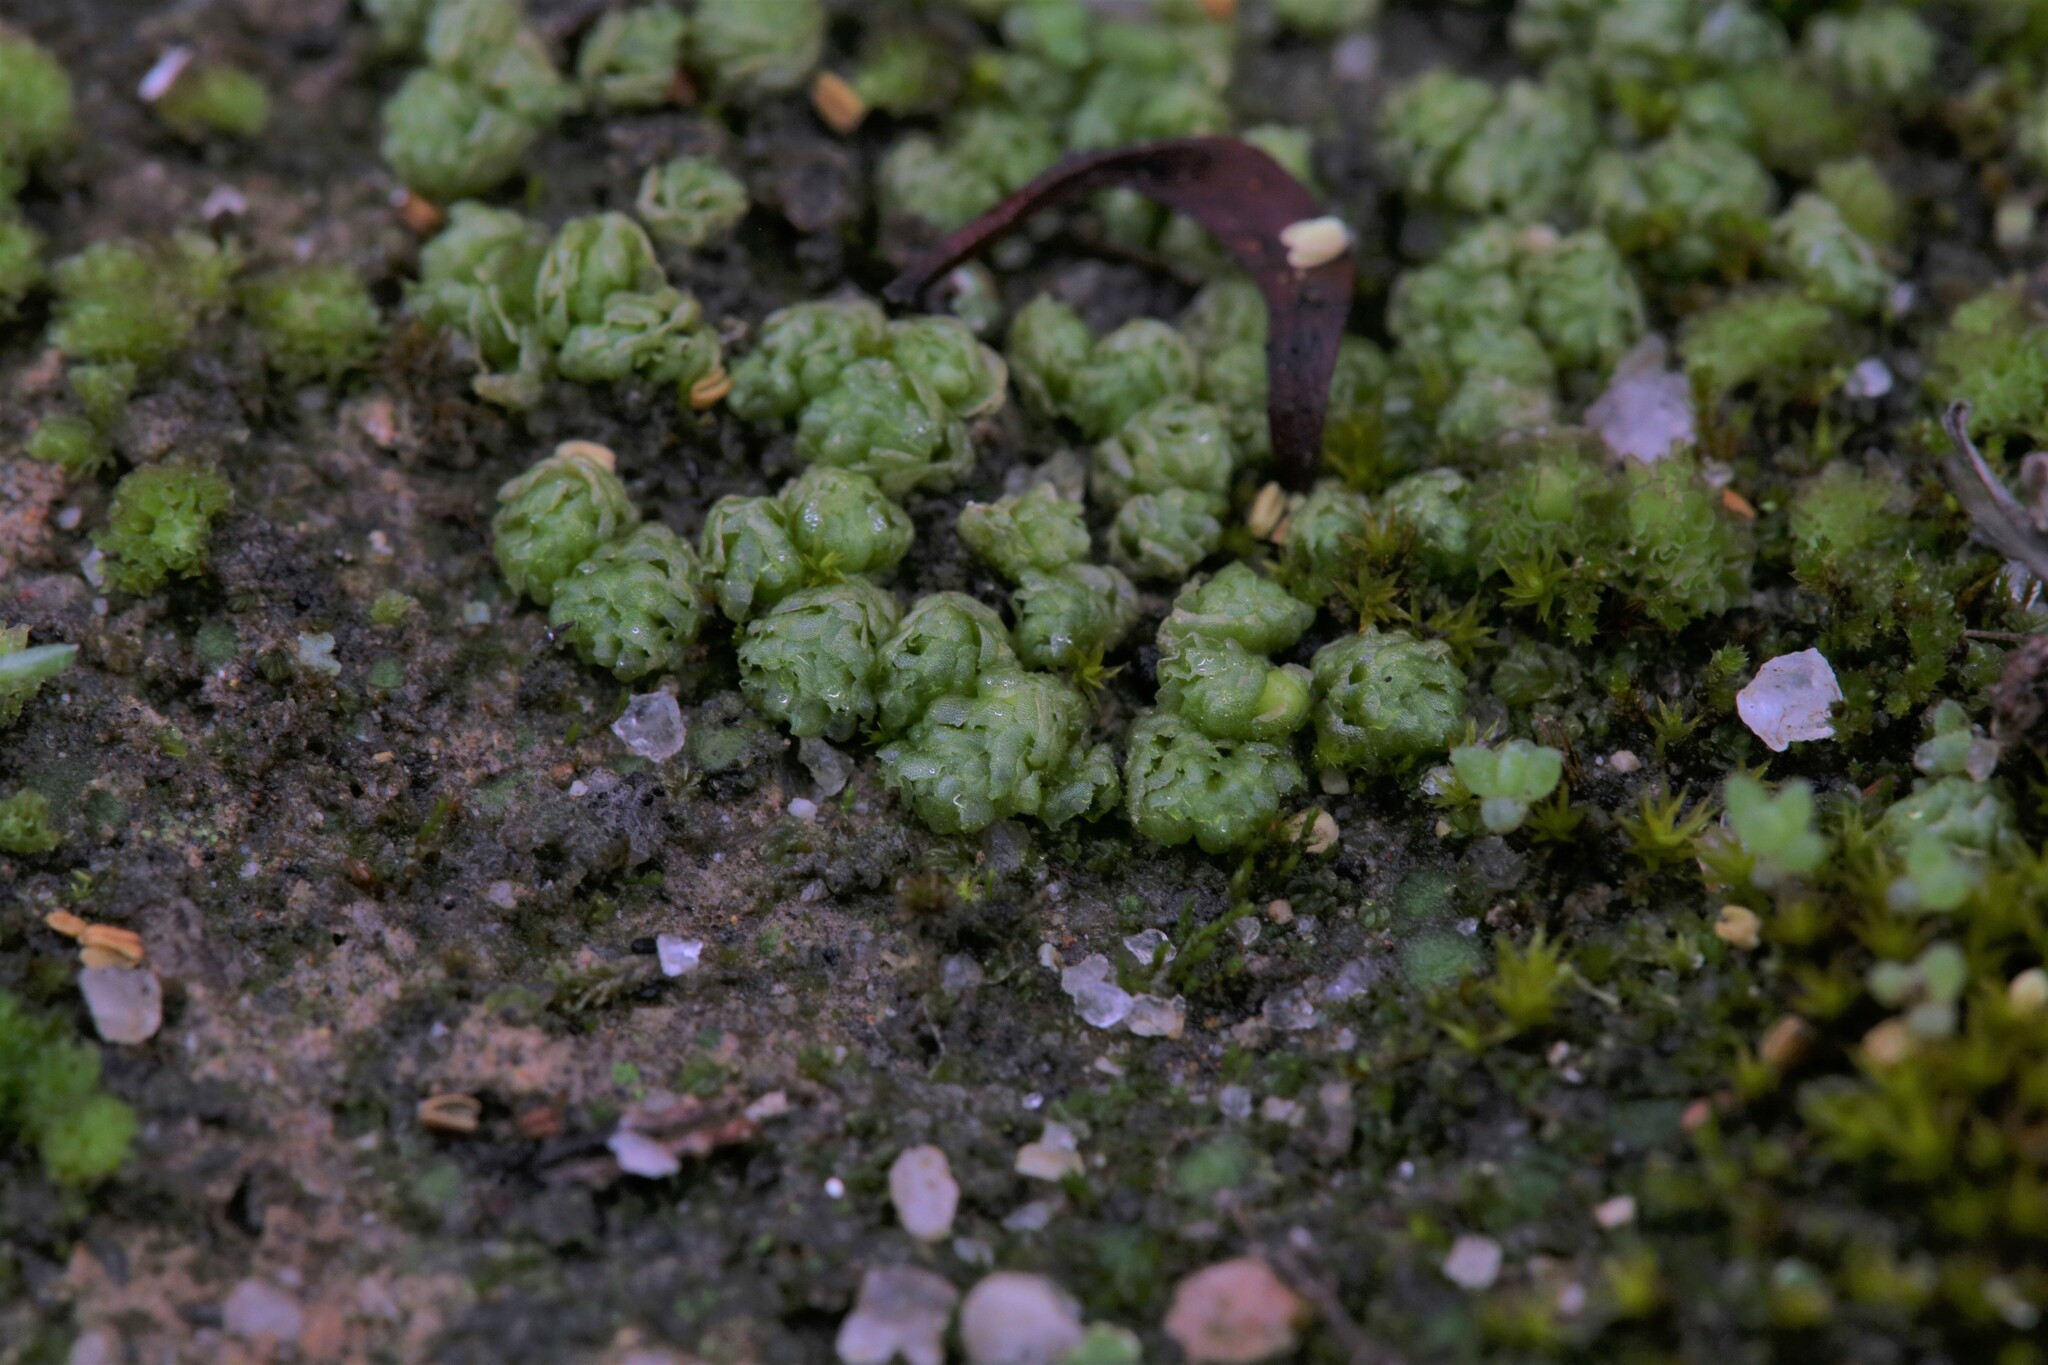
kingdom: Plantae
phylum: Marchantiophyta
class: Jungermanniopsida
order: Fossombroniales
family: Fossombroniaceae
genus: Fossombronia
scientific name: Fossombronia intestinalis
